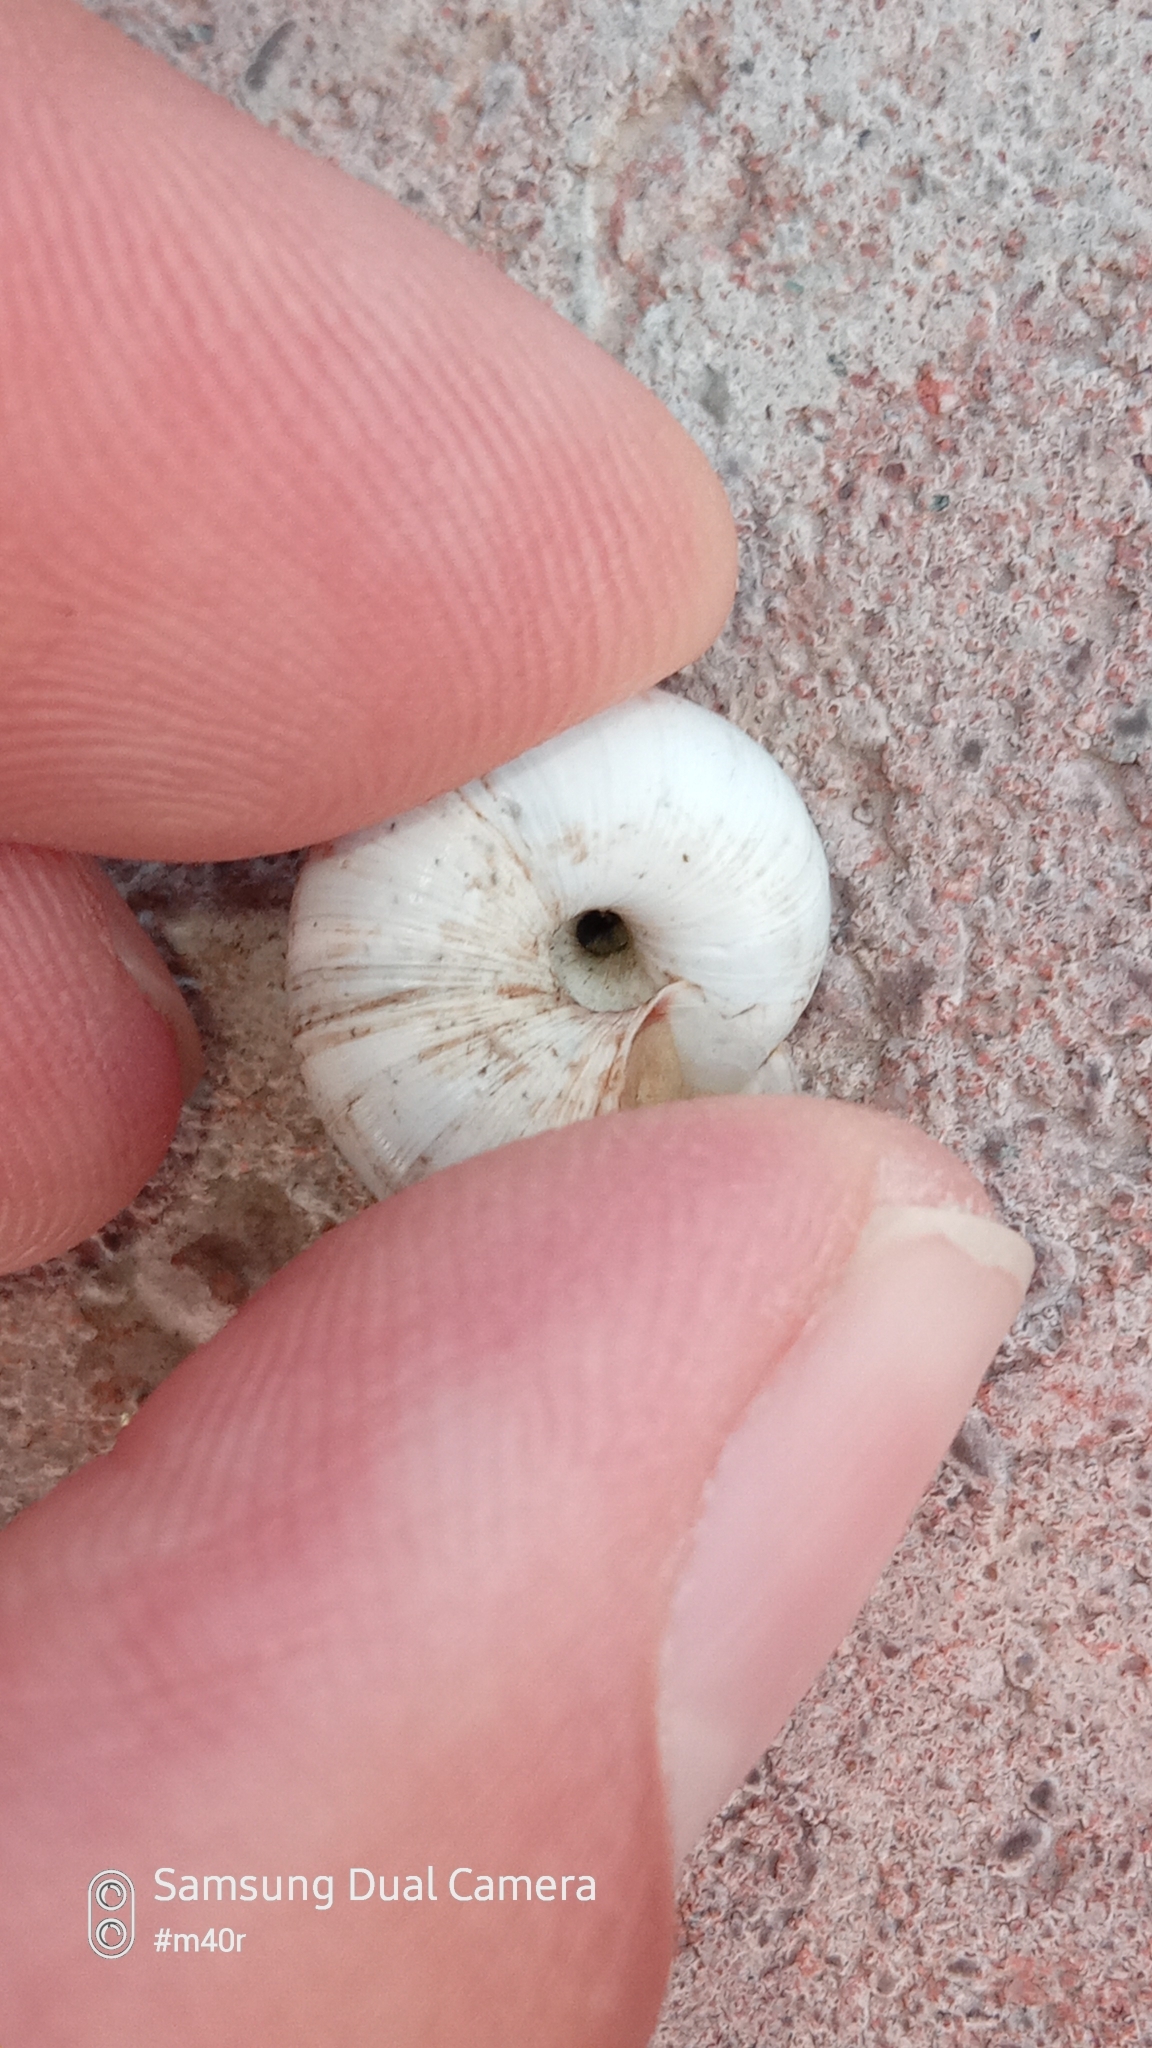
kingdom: Animalia
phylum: Mollusca
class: Gastropoda
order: Stylommatophora
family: Geomitridae
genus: Xeropicta
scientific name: Xeropicta derbentina
